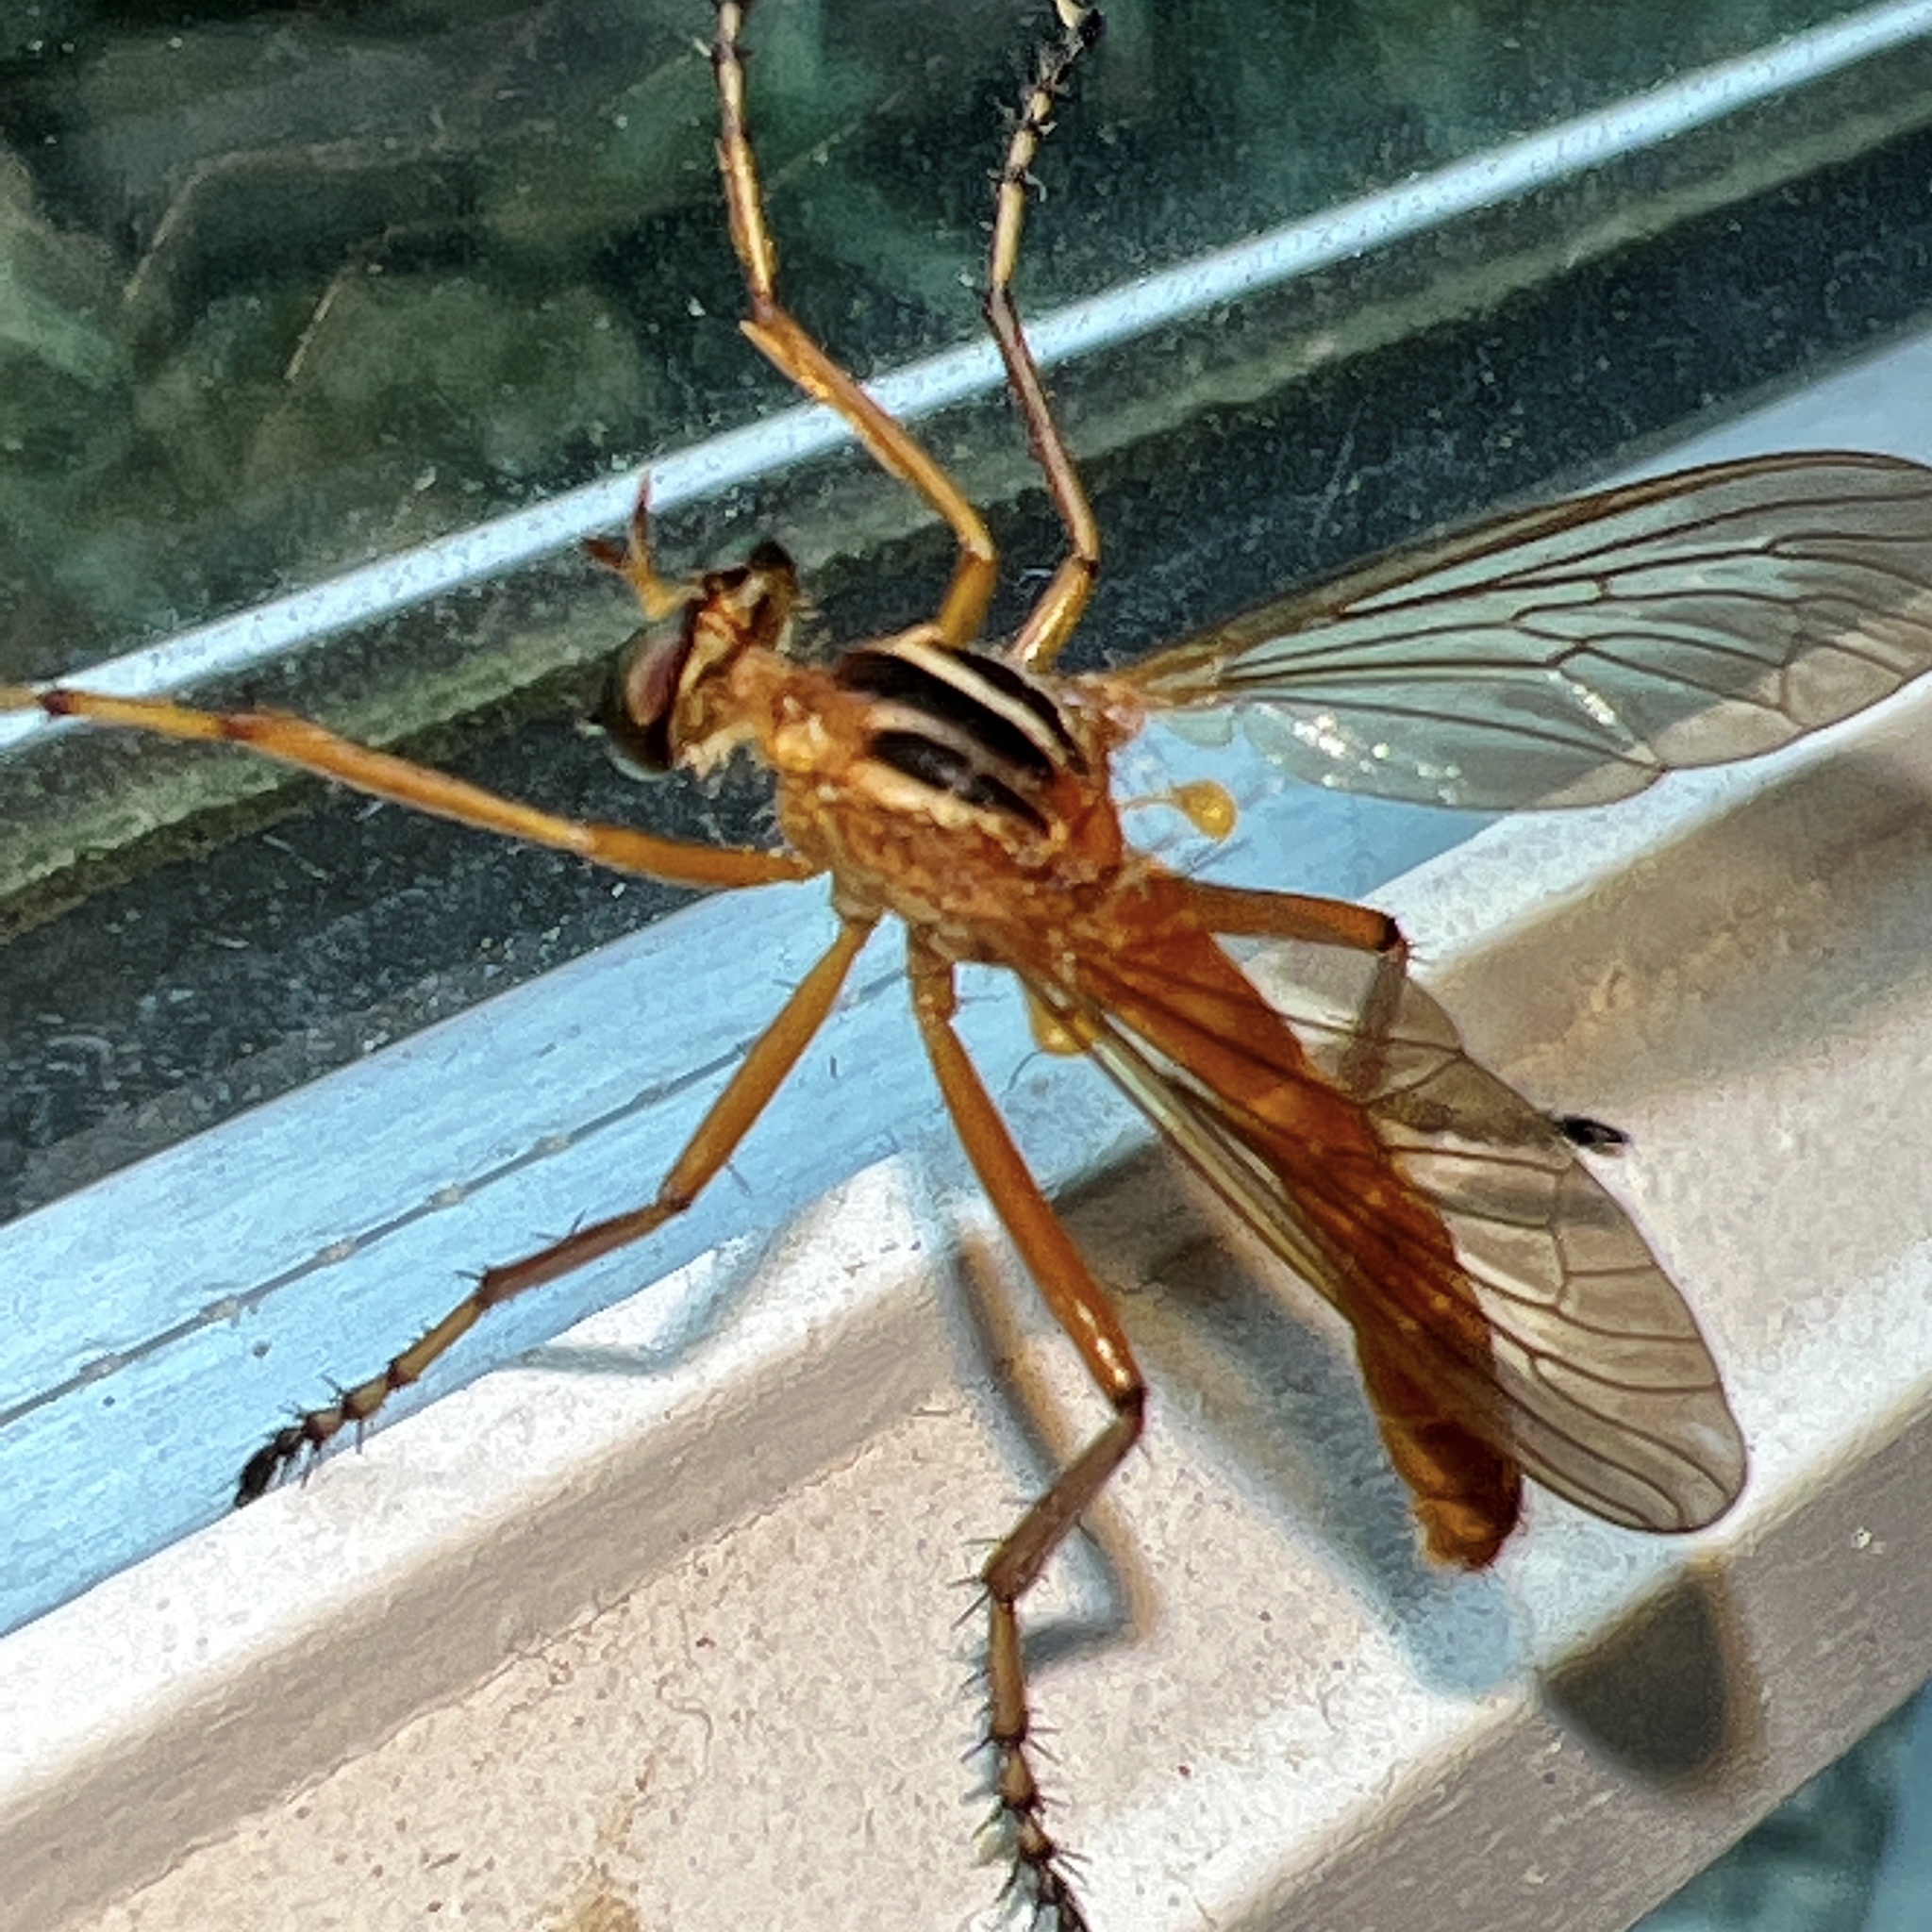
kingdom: Animalia
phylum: Arthropoda
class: Insecta
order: Diptera
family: Asilidae
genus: Diogmites
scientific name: Diogmites neoternatus
